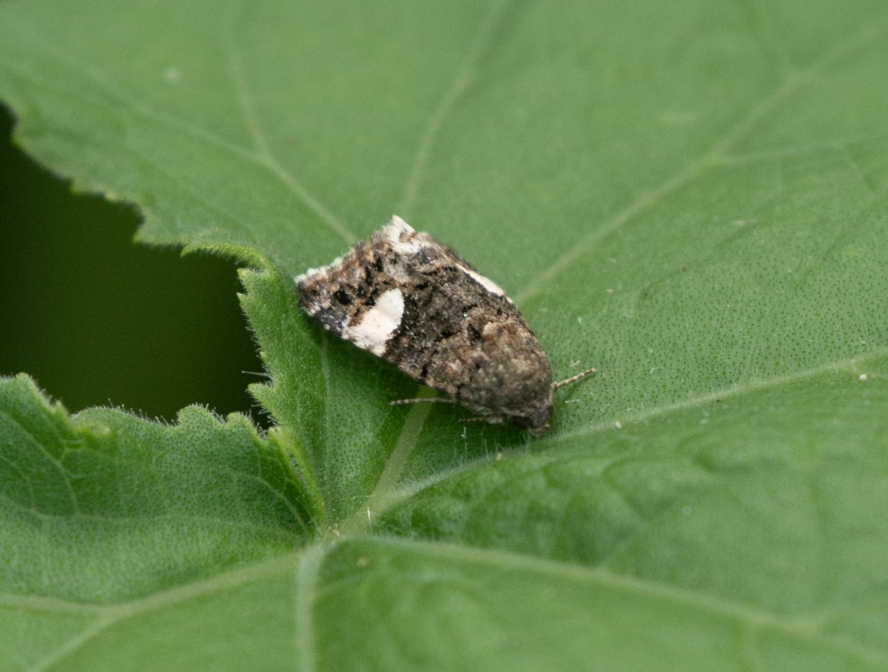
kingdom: Animalia
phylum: Arthropoda
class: Insecta
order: Lepidoptera
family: Erebidae
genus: Tyta
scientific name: Tyta luctuosa
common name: Four-spotted
